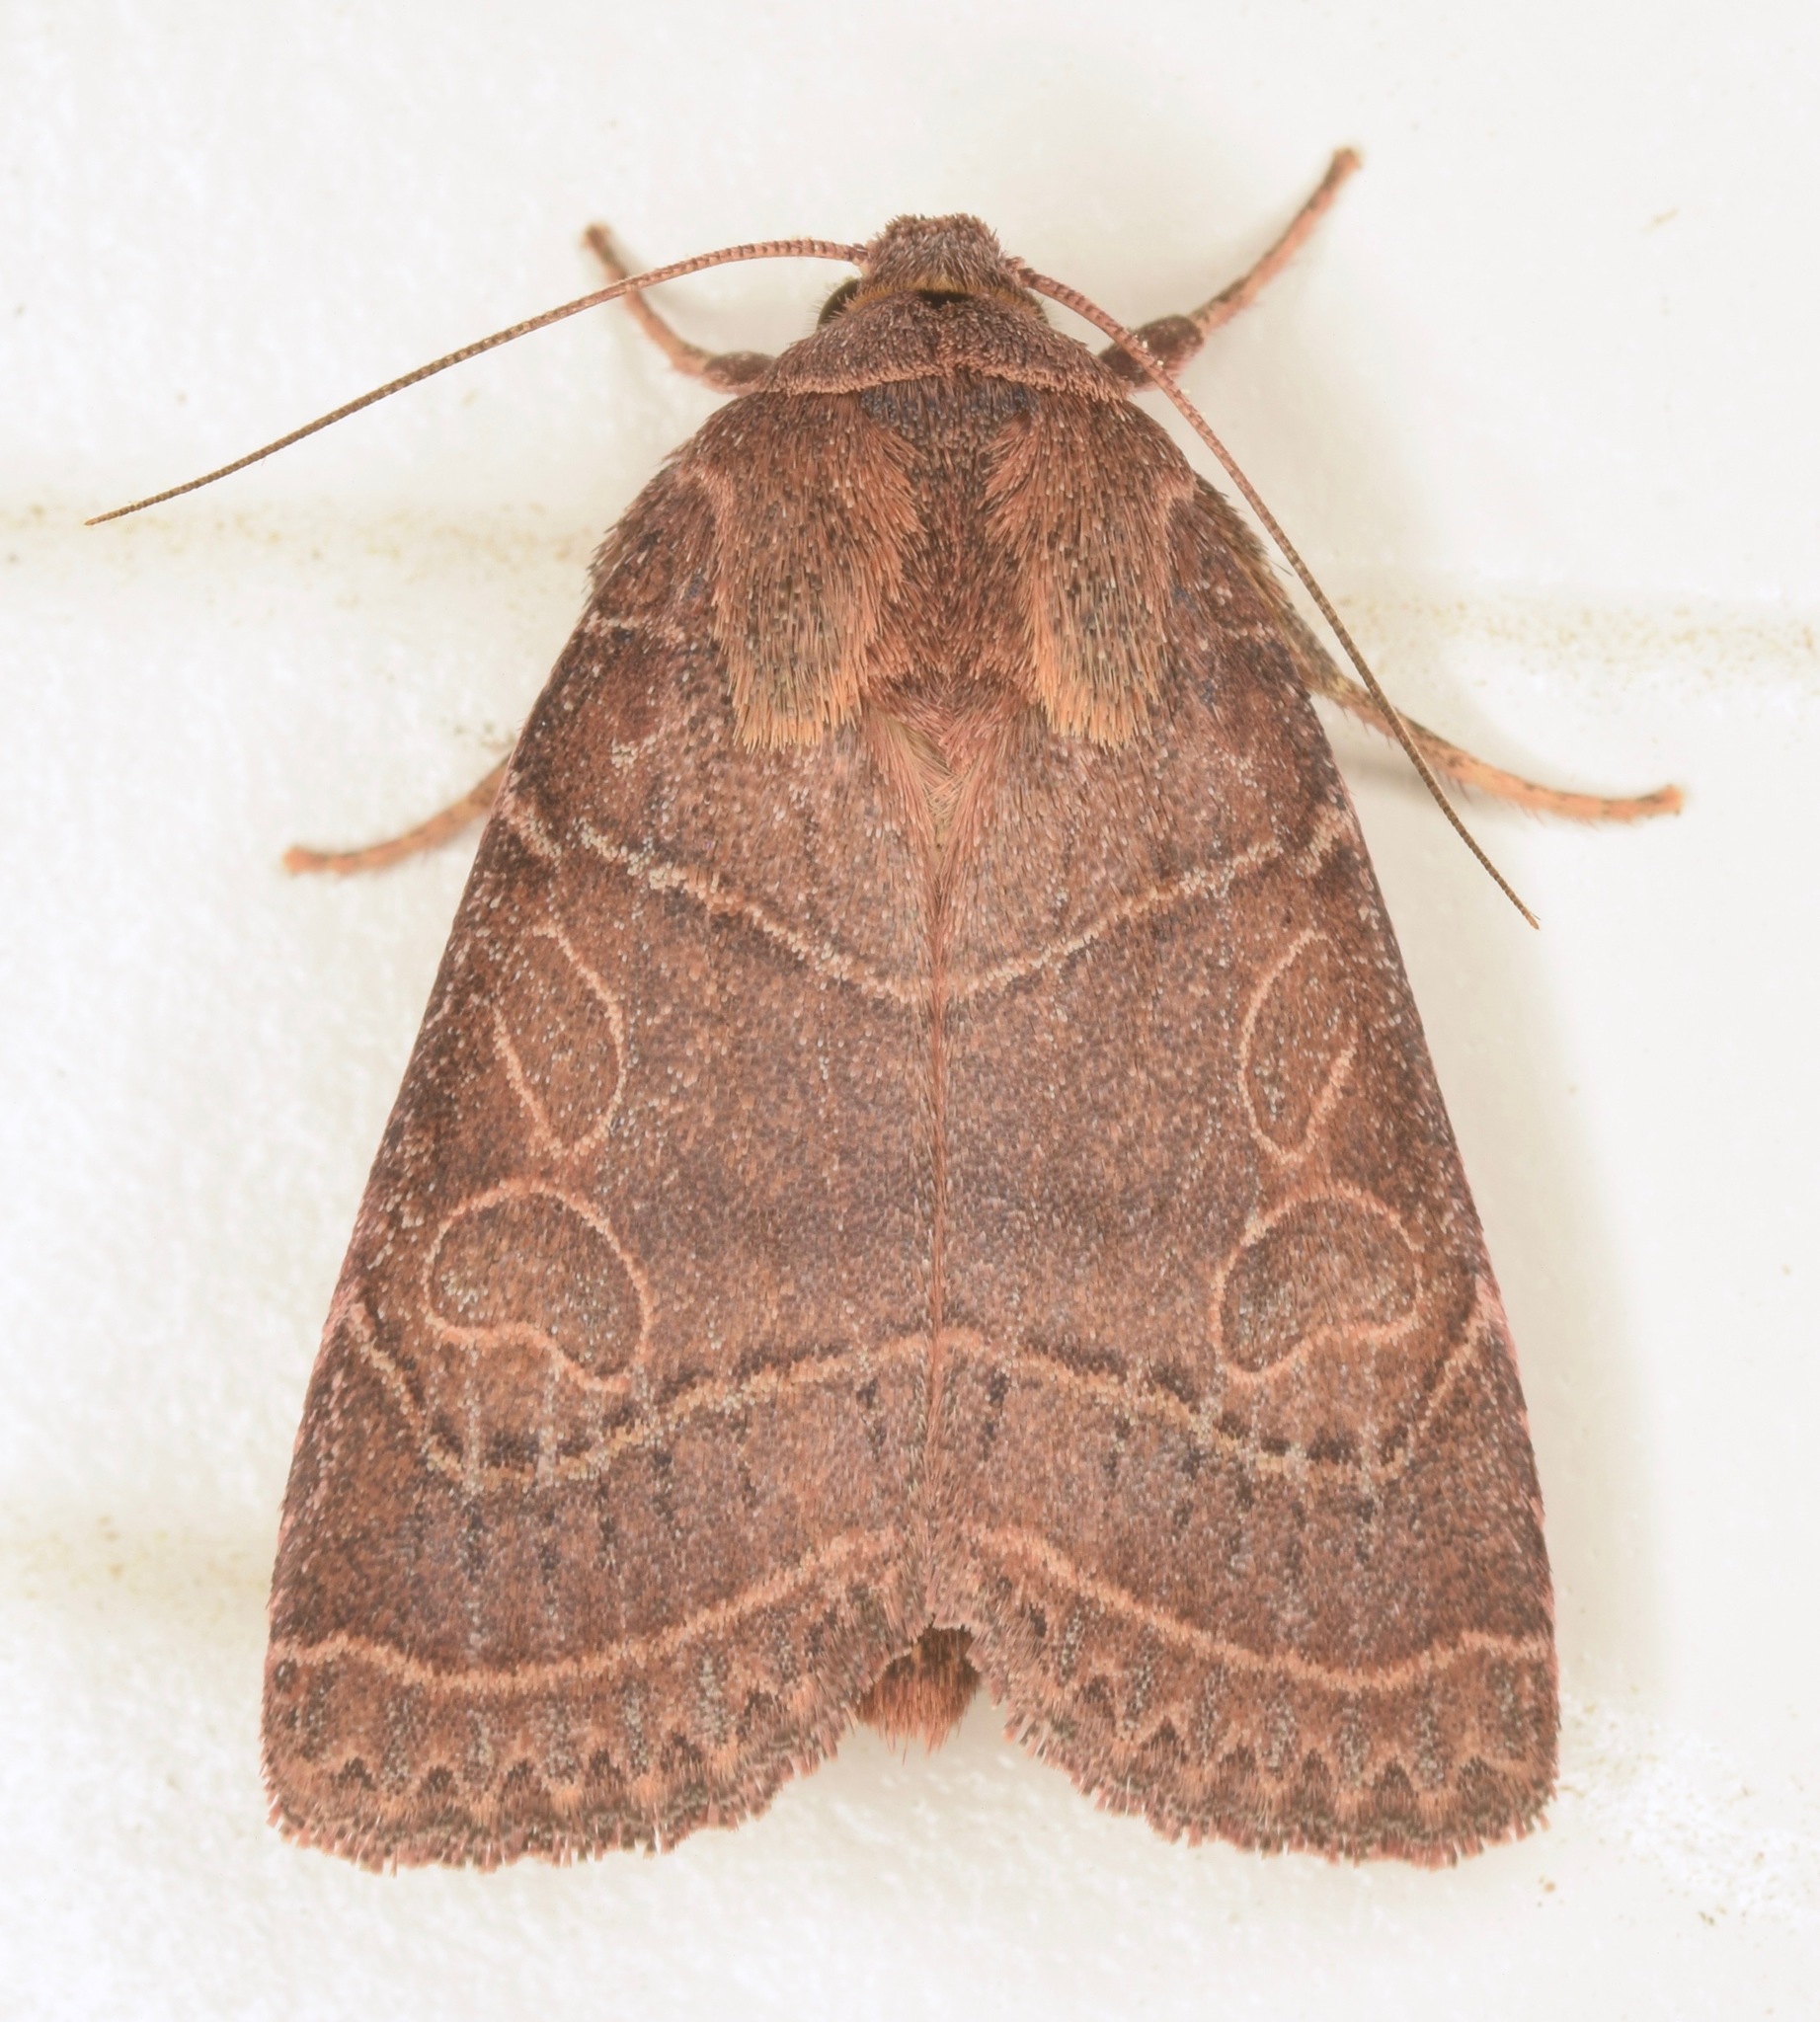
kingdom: Animalia
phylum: Arthropoda
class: Insecta
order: Lepidoptera
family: Noctuidae
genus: Orthodes
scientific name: Orthodes majuscula
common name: Rustic quaker
